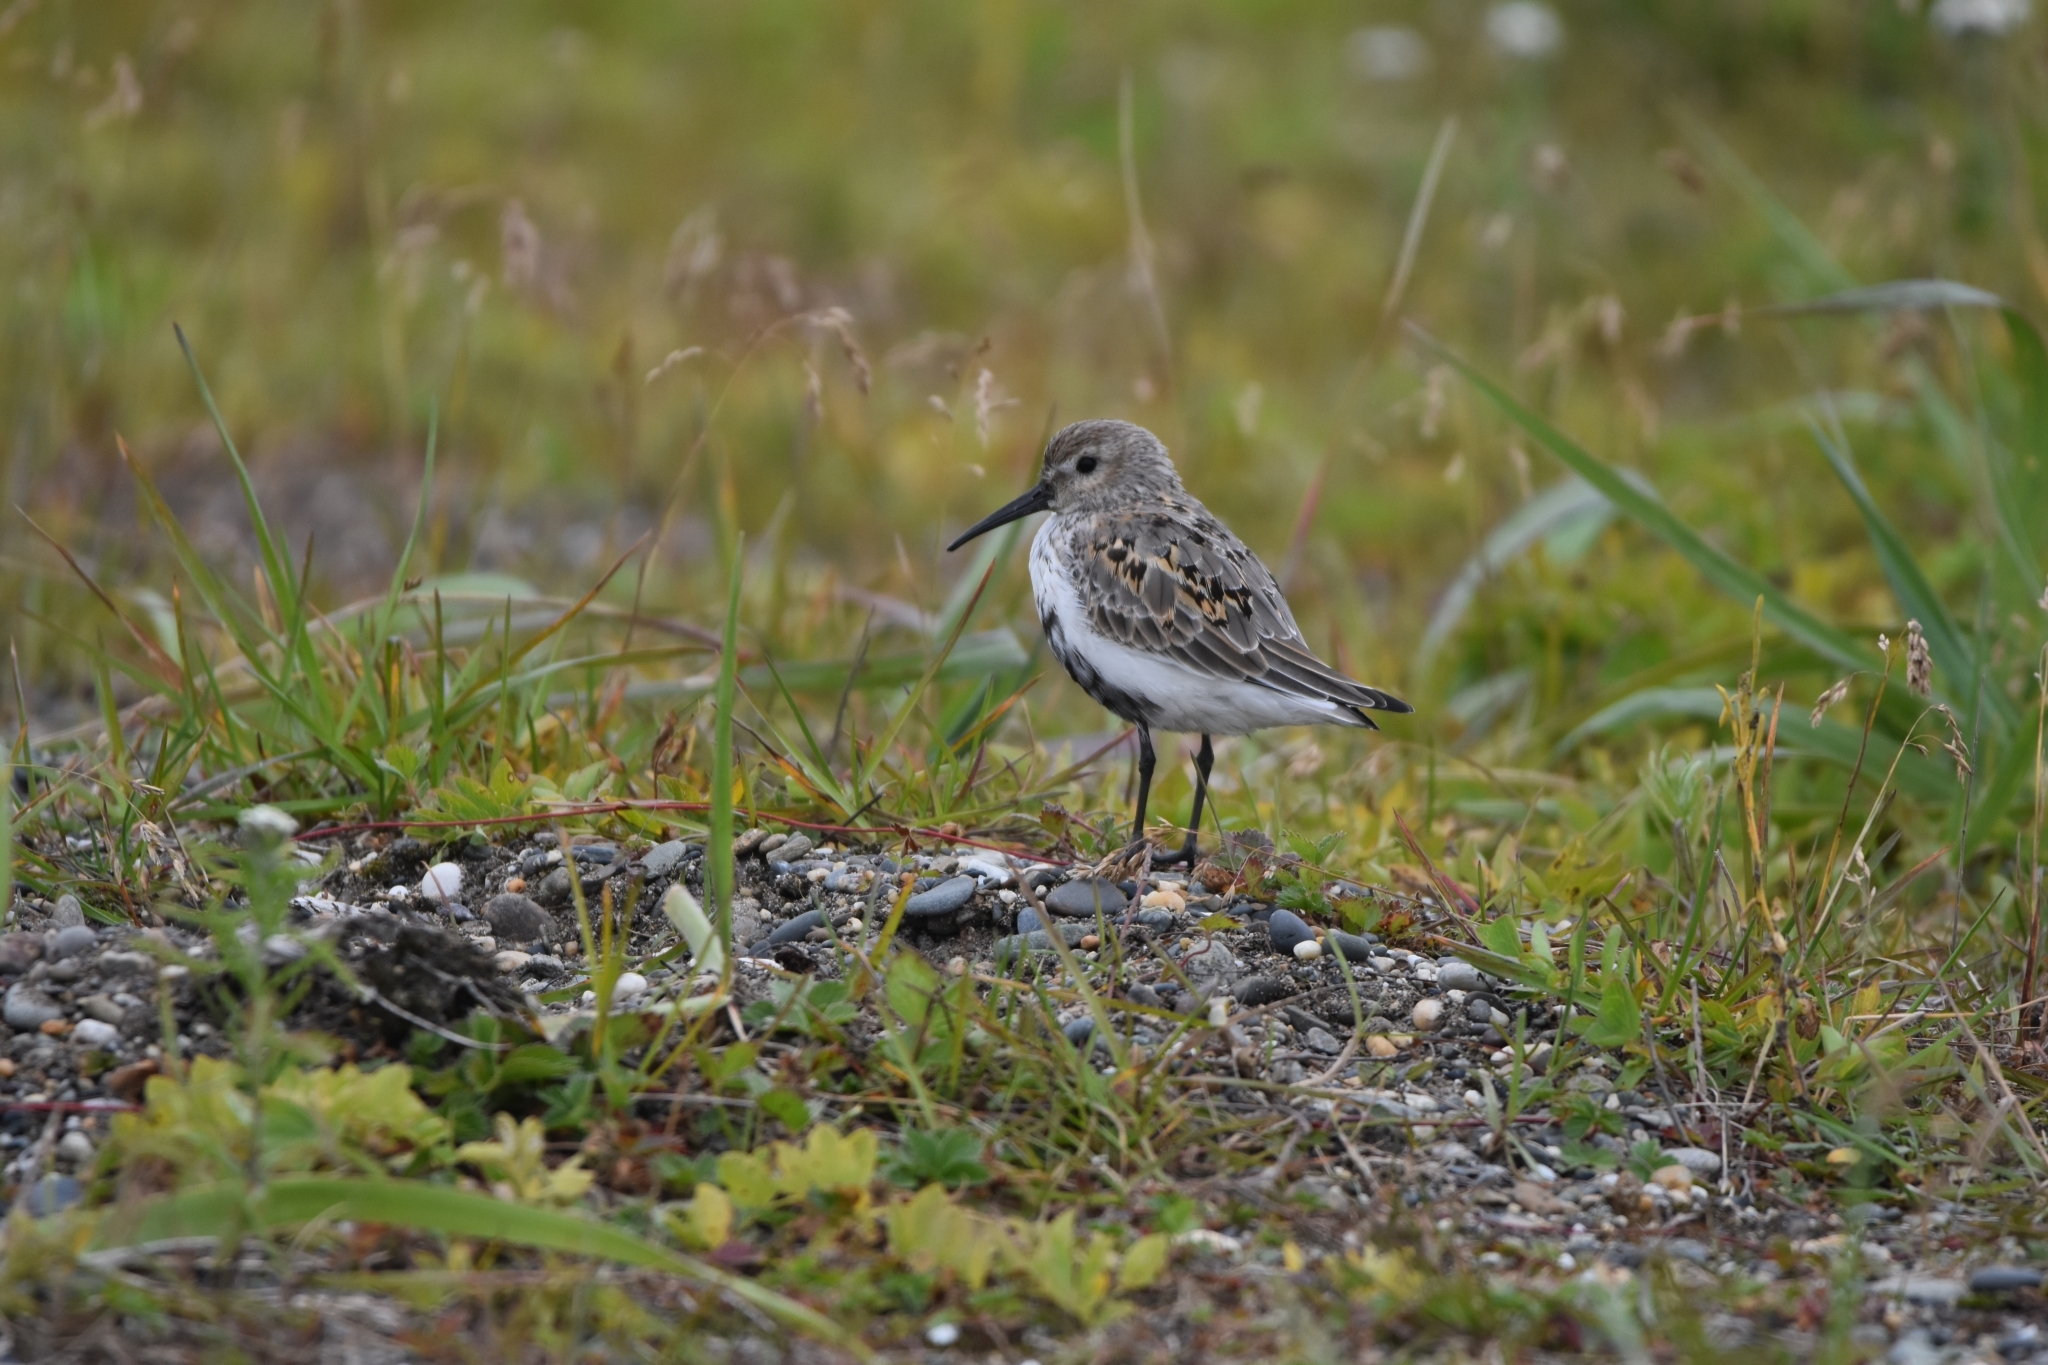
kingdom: Animalia
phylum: Chordata
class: Aves
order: Charadriiformes
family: Scolopacidae
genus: Calidris
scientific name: Calidris alpina
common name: Dunlin
